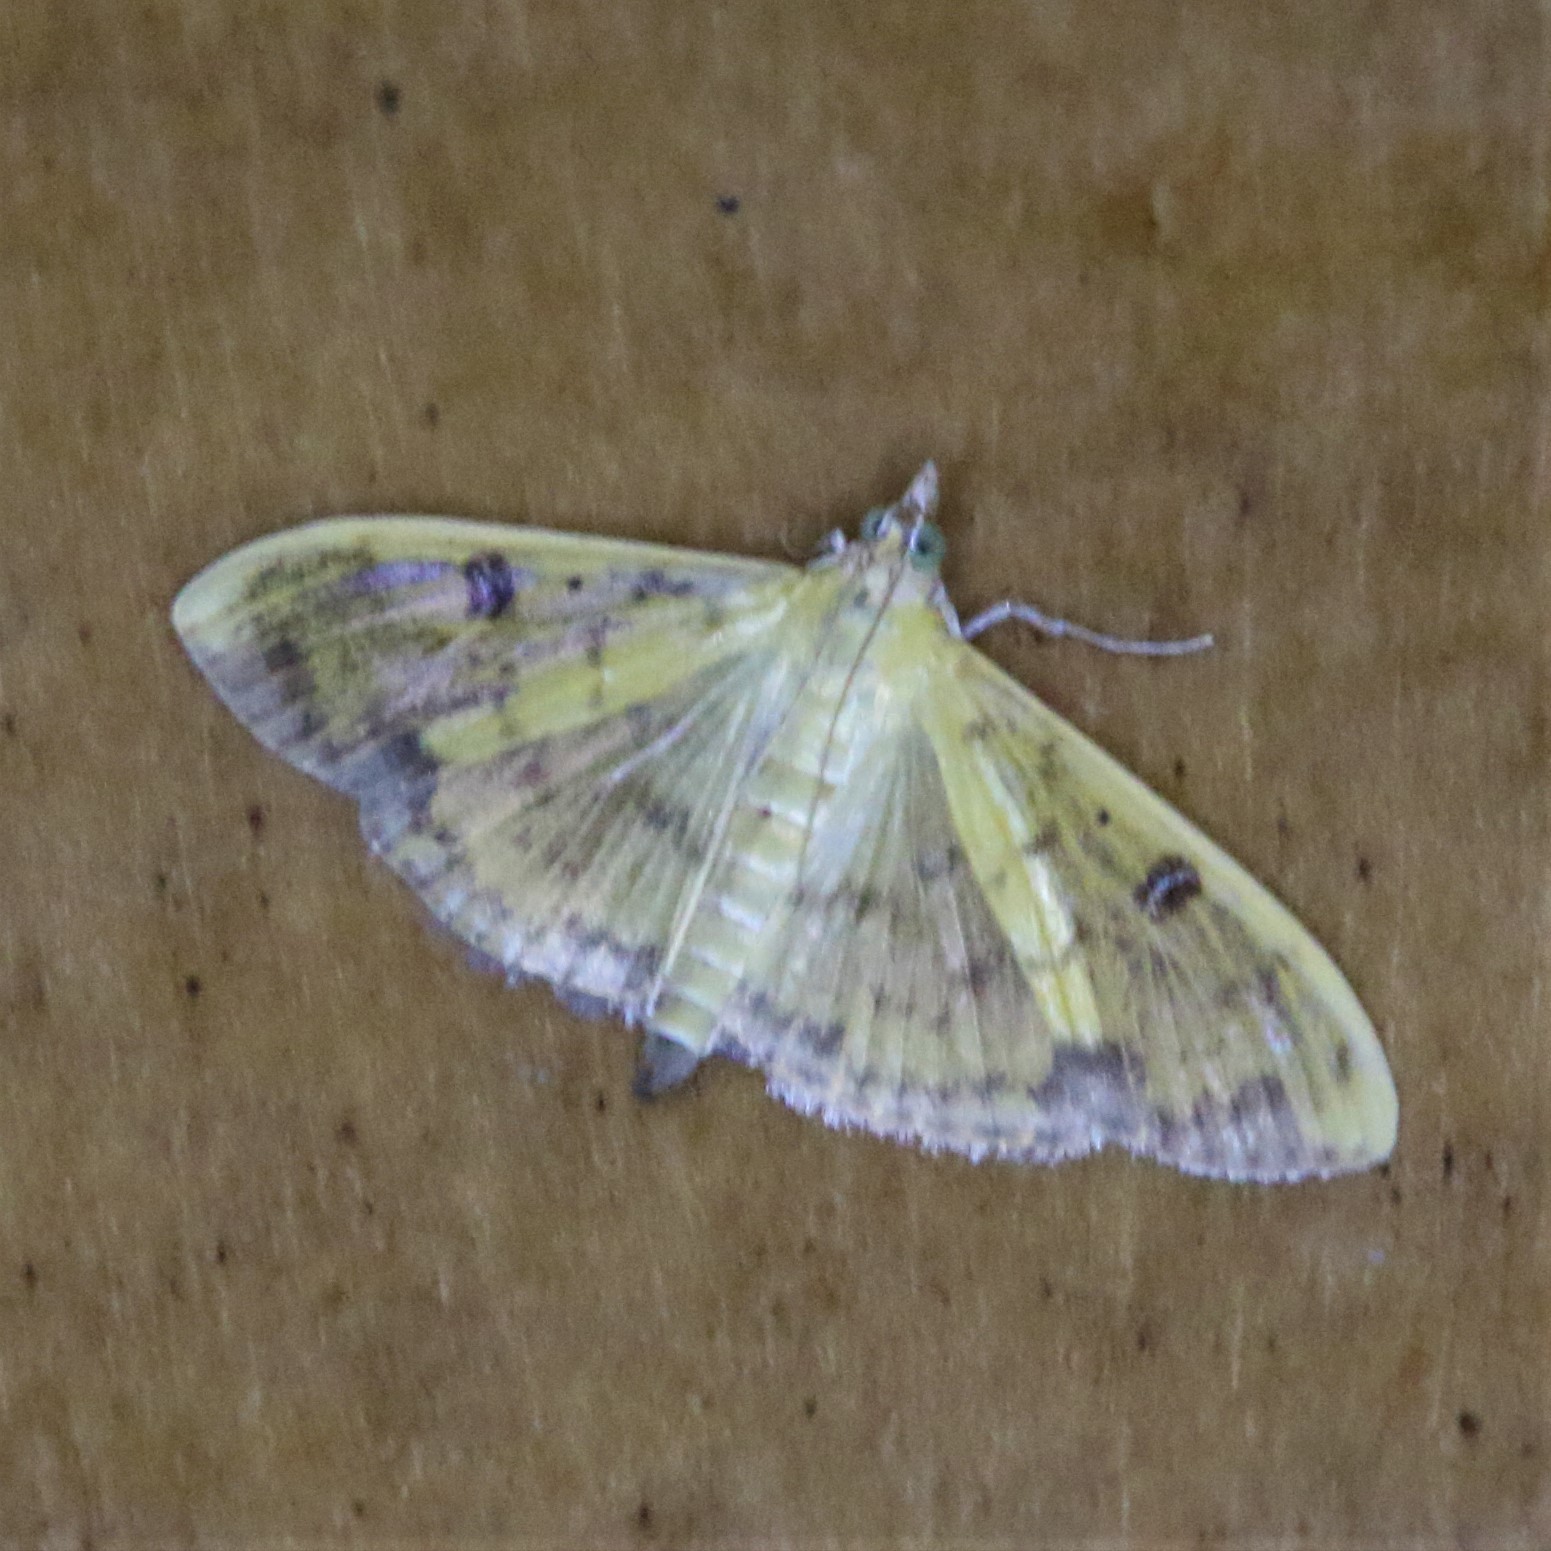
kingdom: Animalia
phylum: Arthropoda
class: Insecta
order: Lepidoptera
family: Crambidae
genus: Botyodes
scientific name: Botyodes diniasalis
